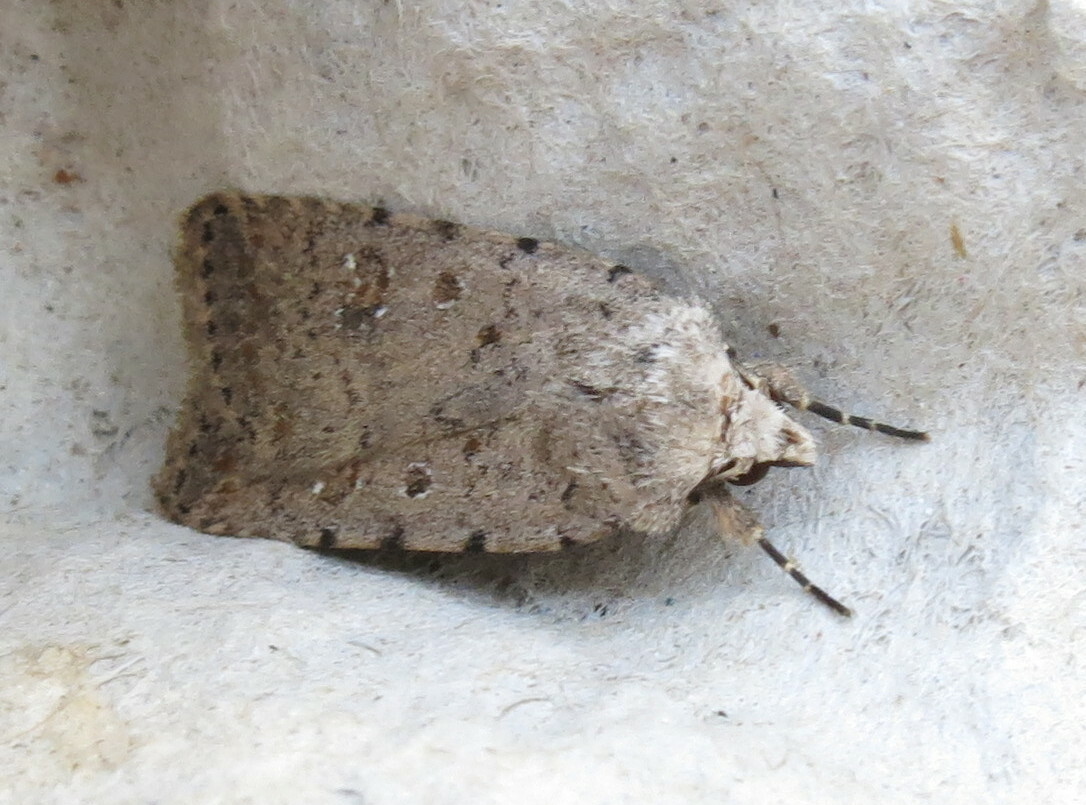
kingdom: Animalia
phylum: Arthropoda
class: Insecta
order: Lepidoptera
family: Noctuidae
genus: Caradrina
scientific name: Caradrina clavipalpis
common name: Pale mottled willow
